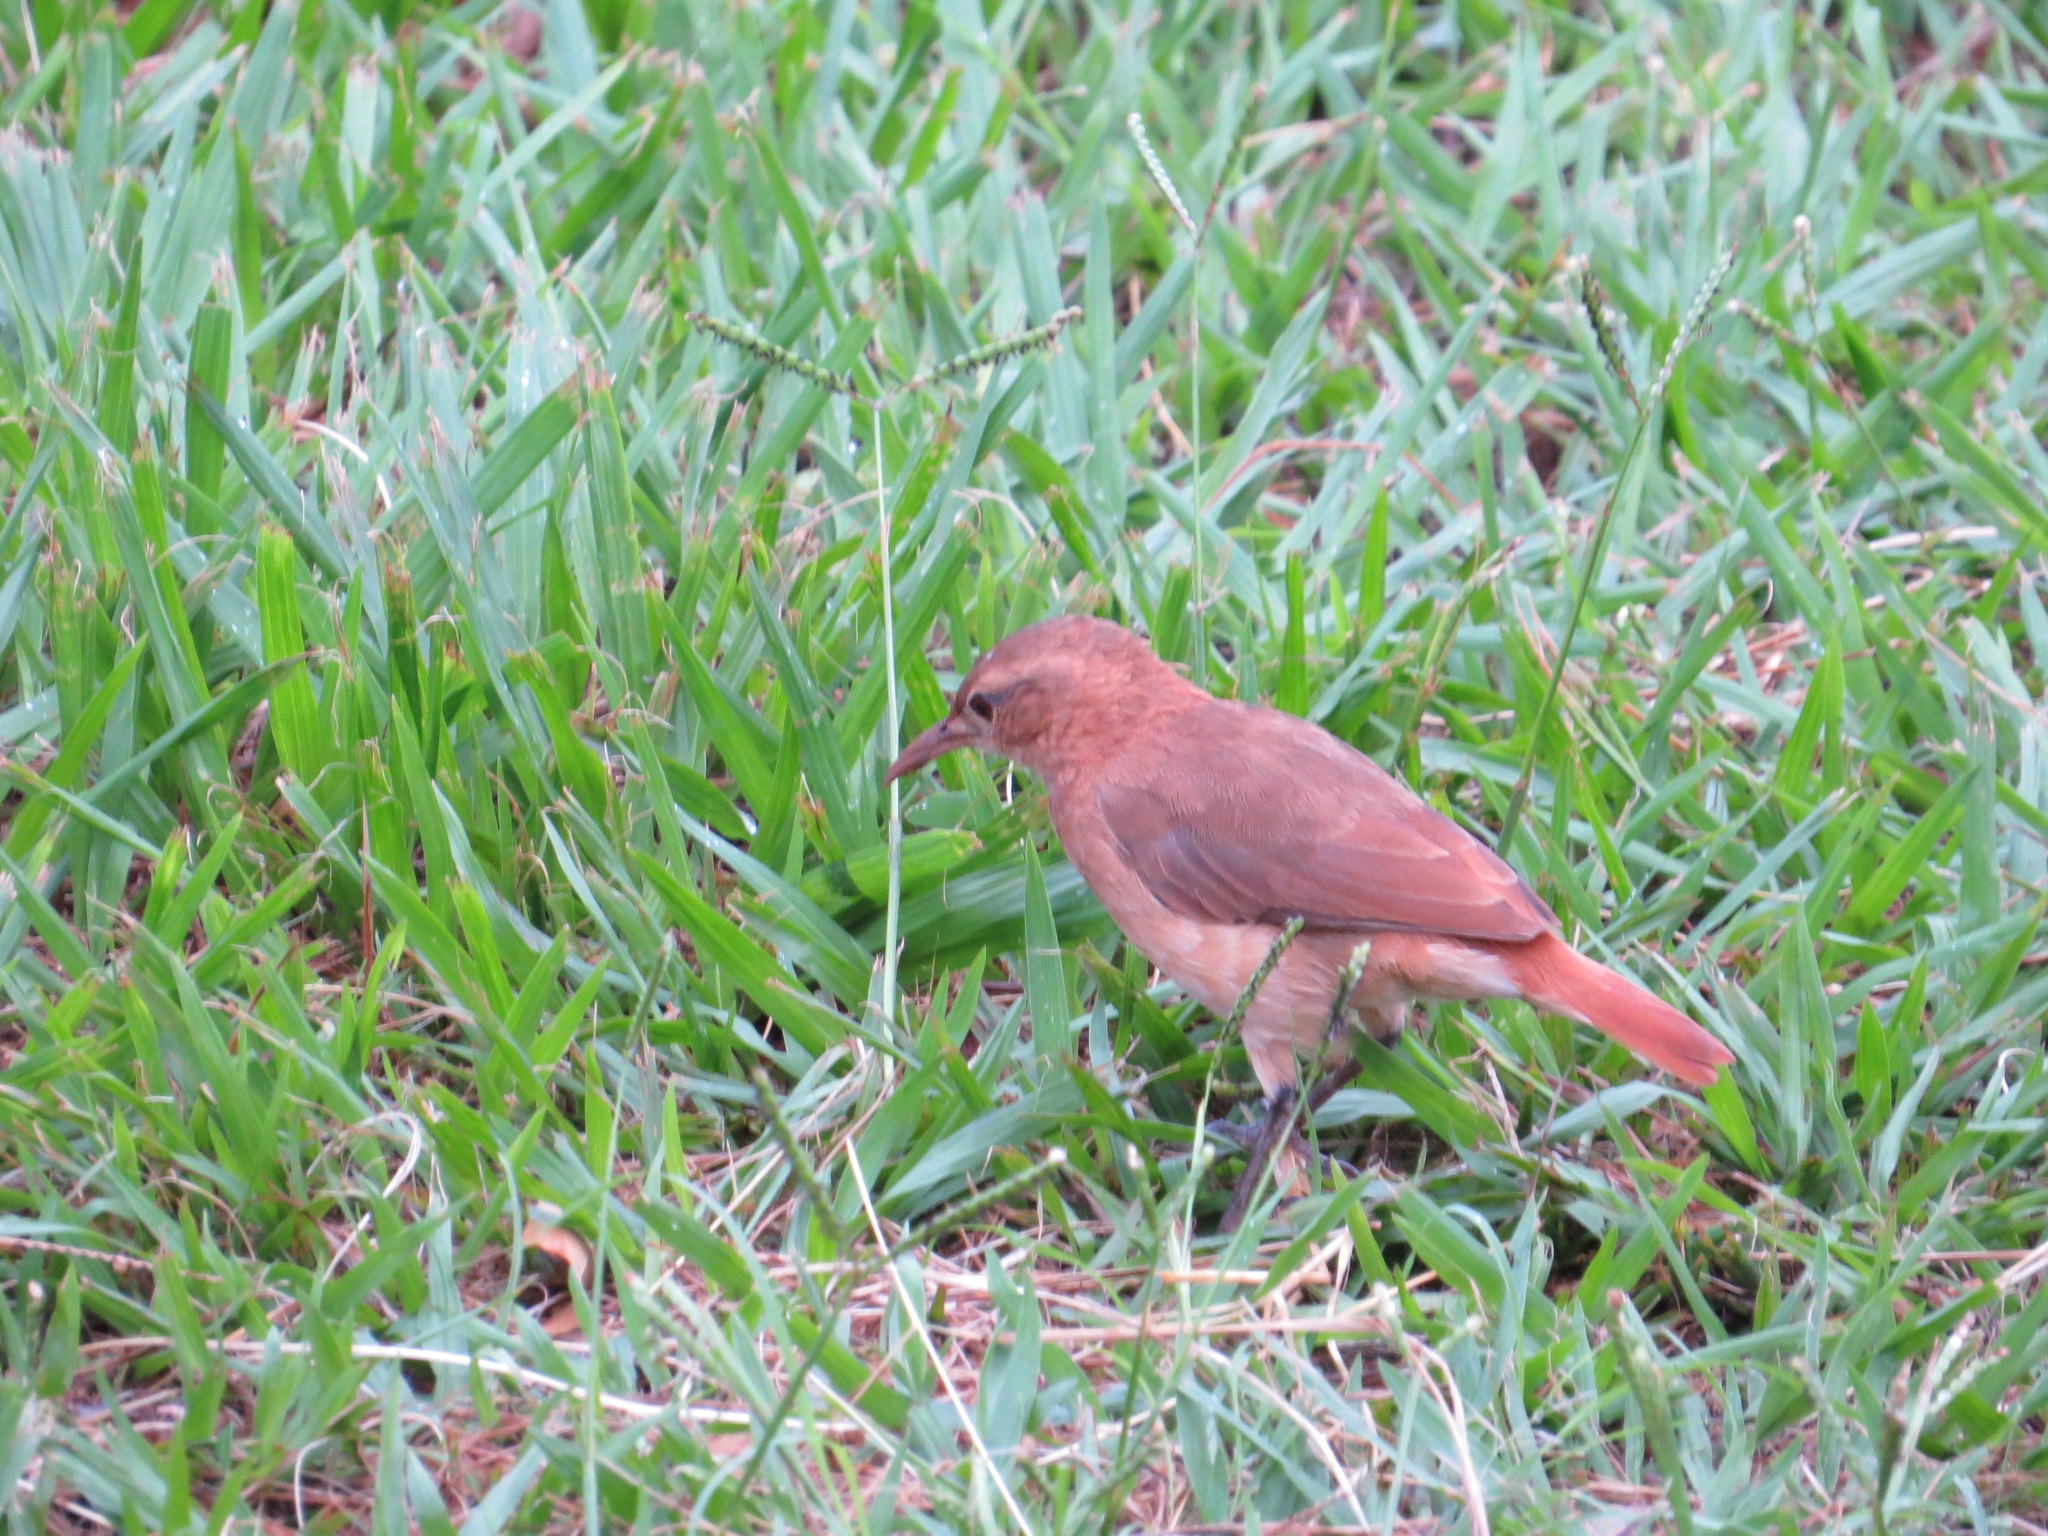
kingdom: Animalia
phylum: Chordata
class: Aves
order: Passeriformes
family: Furnariidae
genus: Furnarius
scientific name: Furnarius rufus
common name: Rufous hornero
